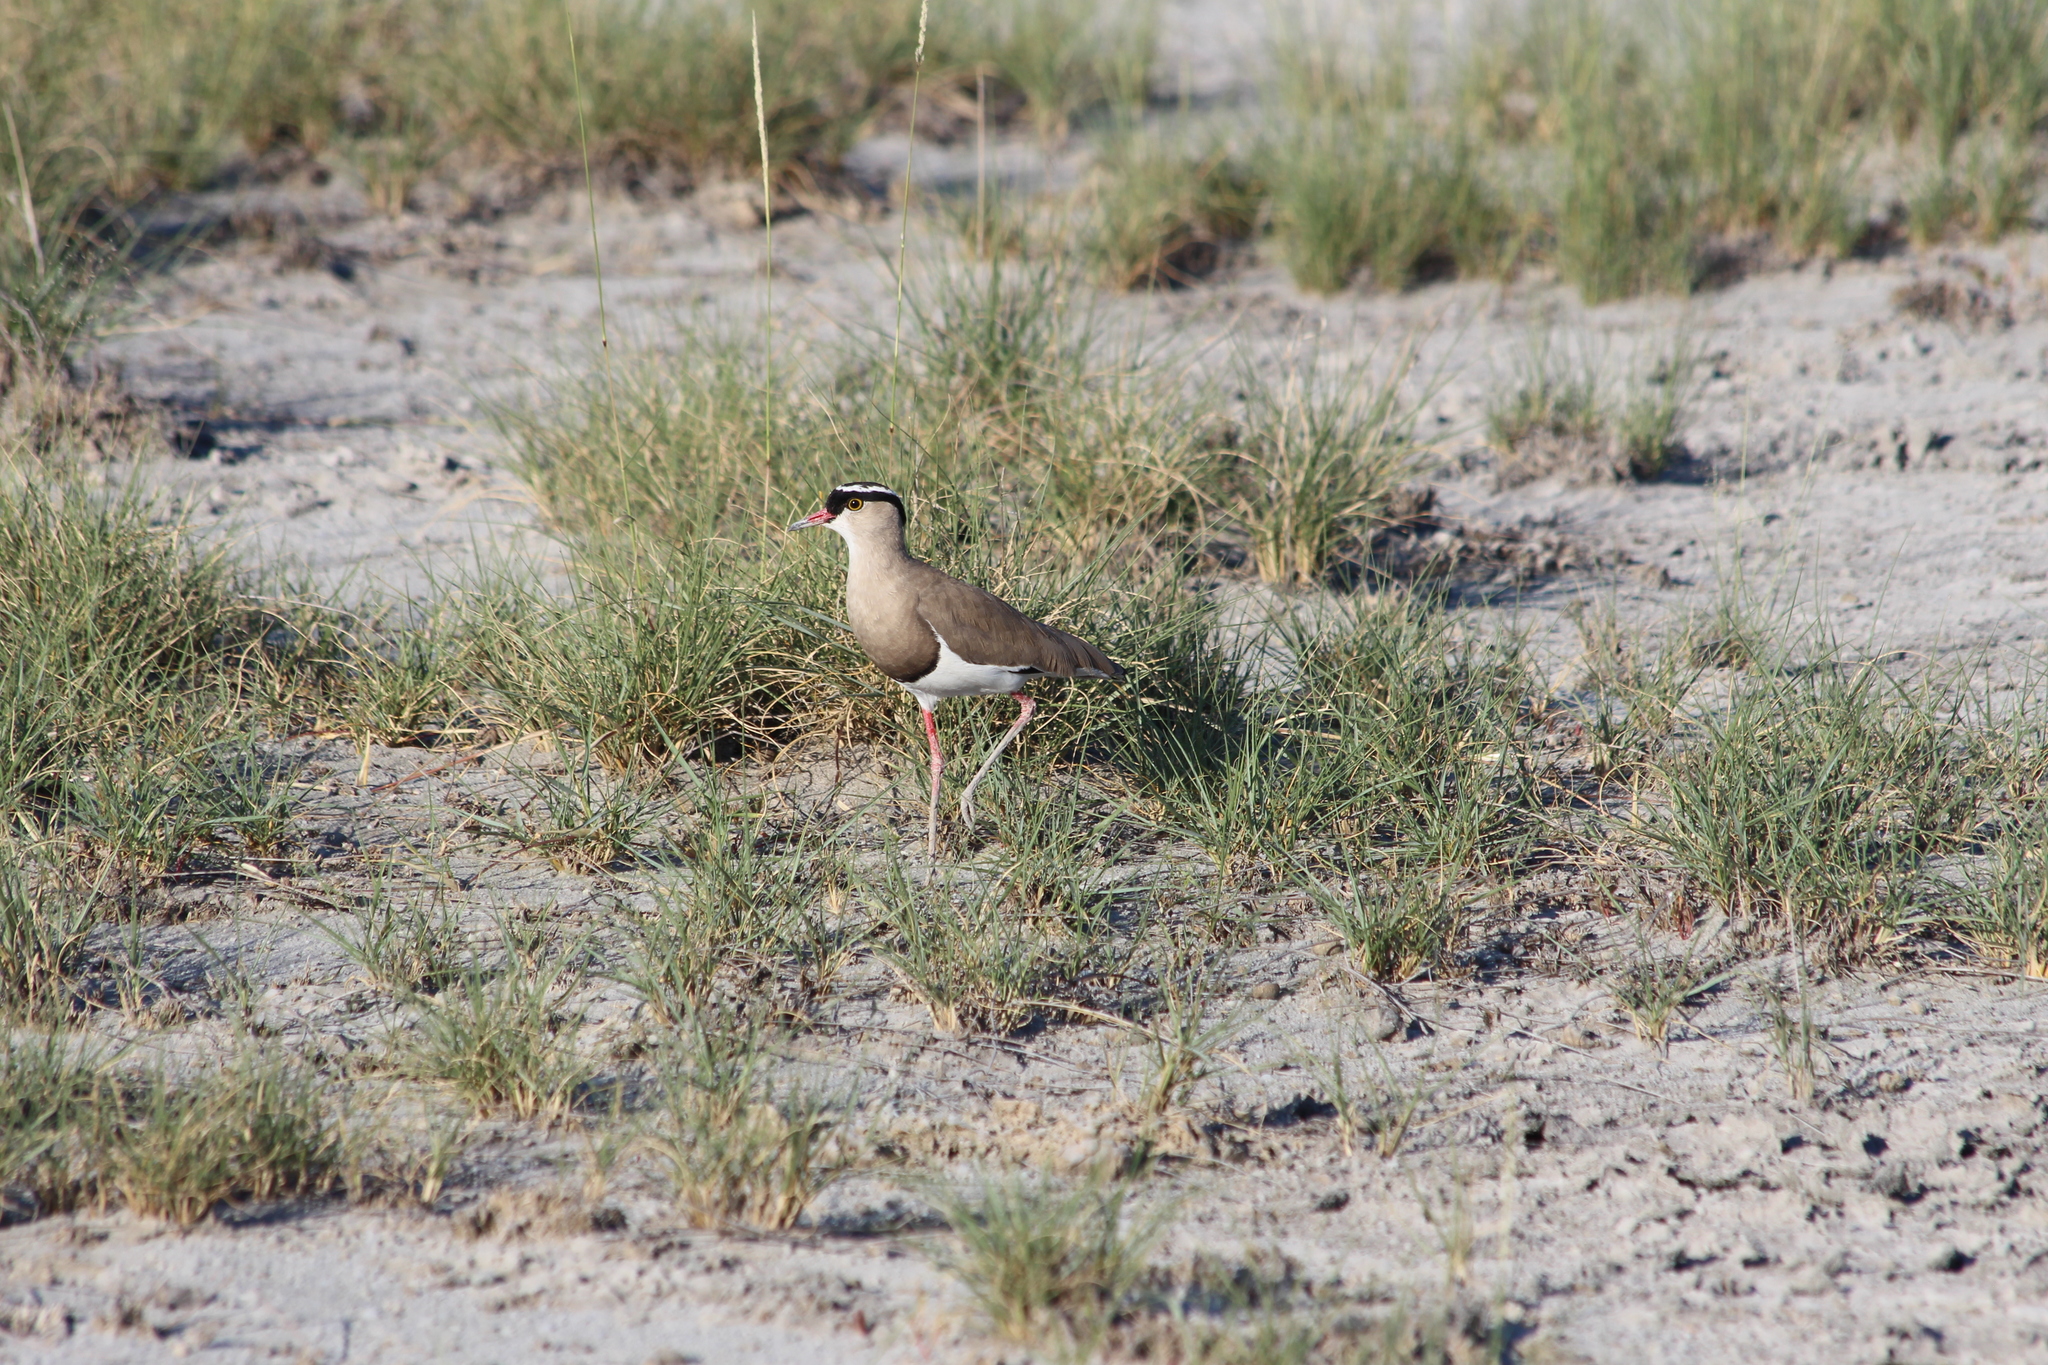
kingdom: Animalia
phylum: Chordata
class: Aves
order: Charadriiformes
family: Charadriidae
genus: Vanellus
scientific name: Vanellus coronatus
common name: Crowned lapwing
